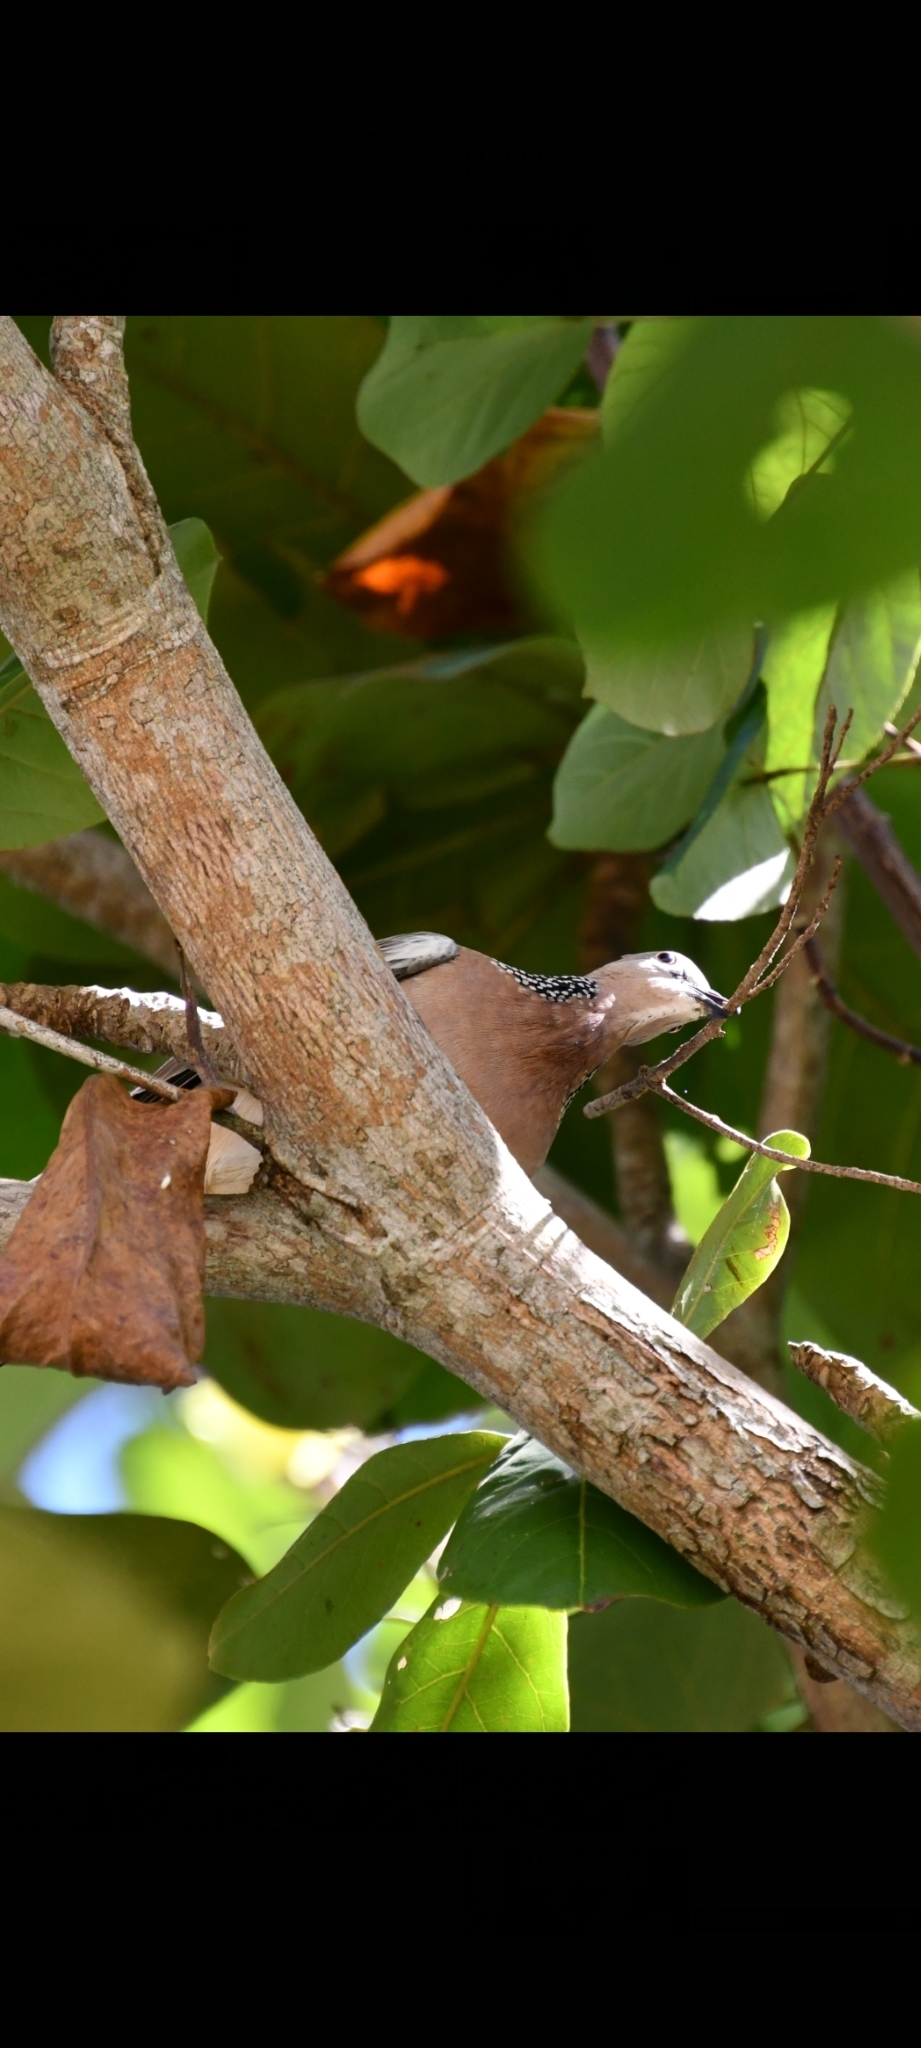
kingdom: Animalia
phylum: Chordata
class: Aves
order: Columbiformes
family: Columbidae
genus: Spilopelia
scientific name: Spilopelia chinensis
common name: Spotted dove
